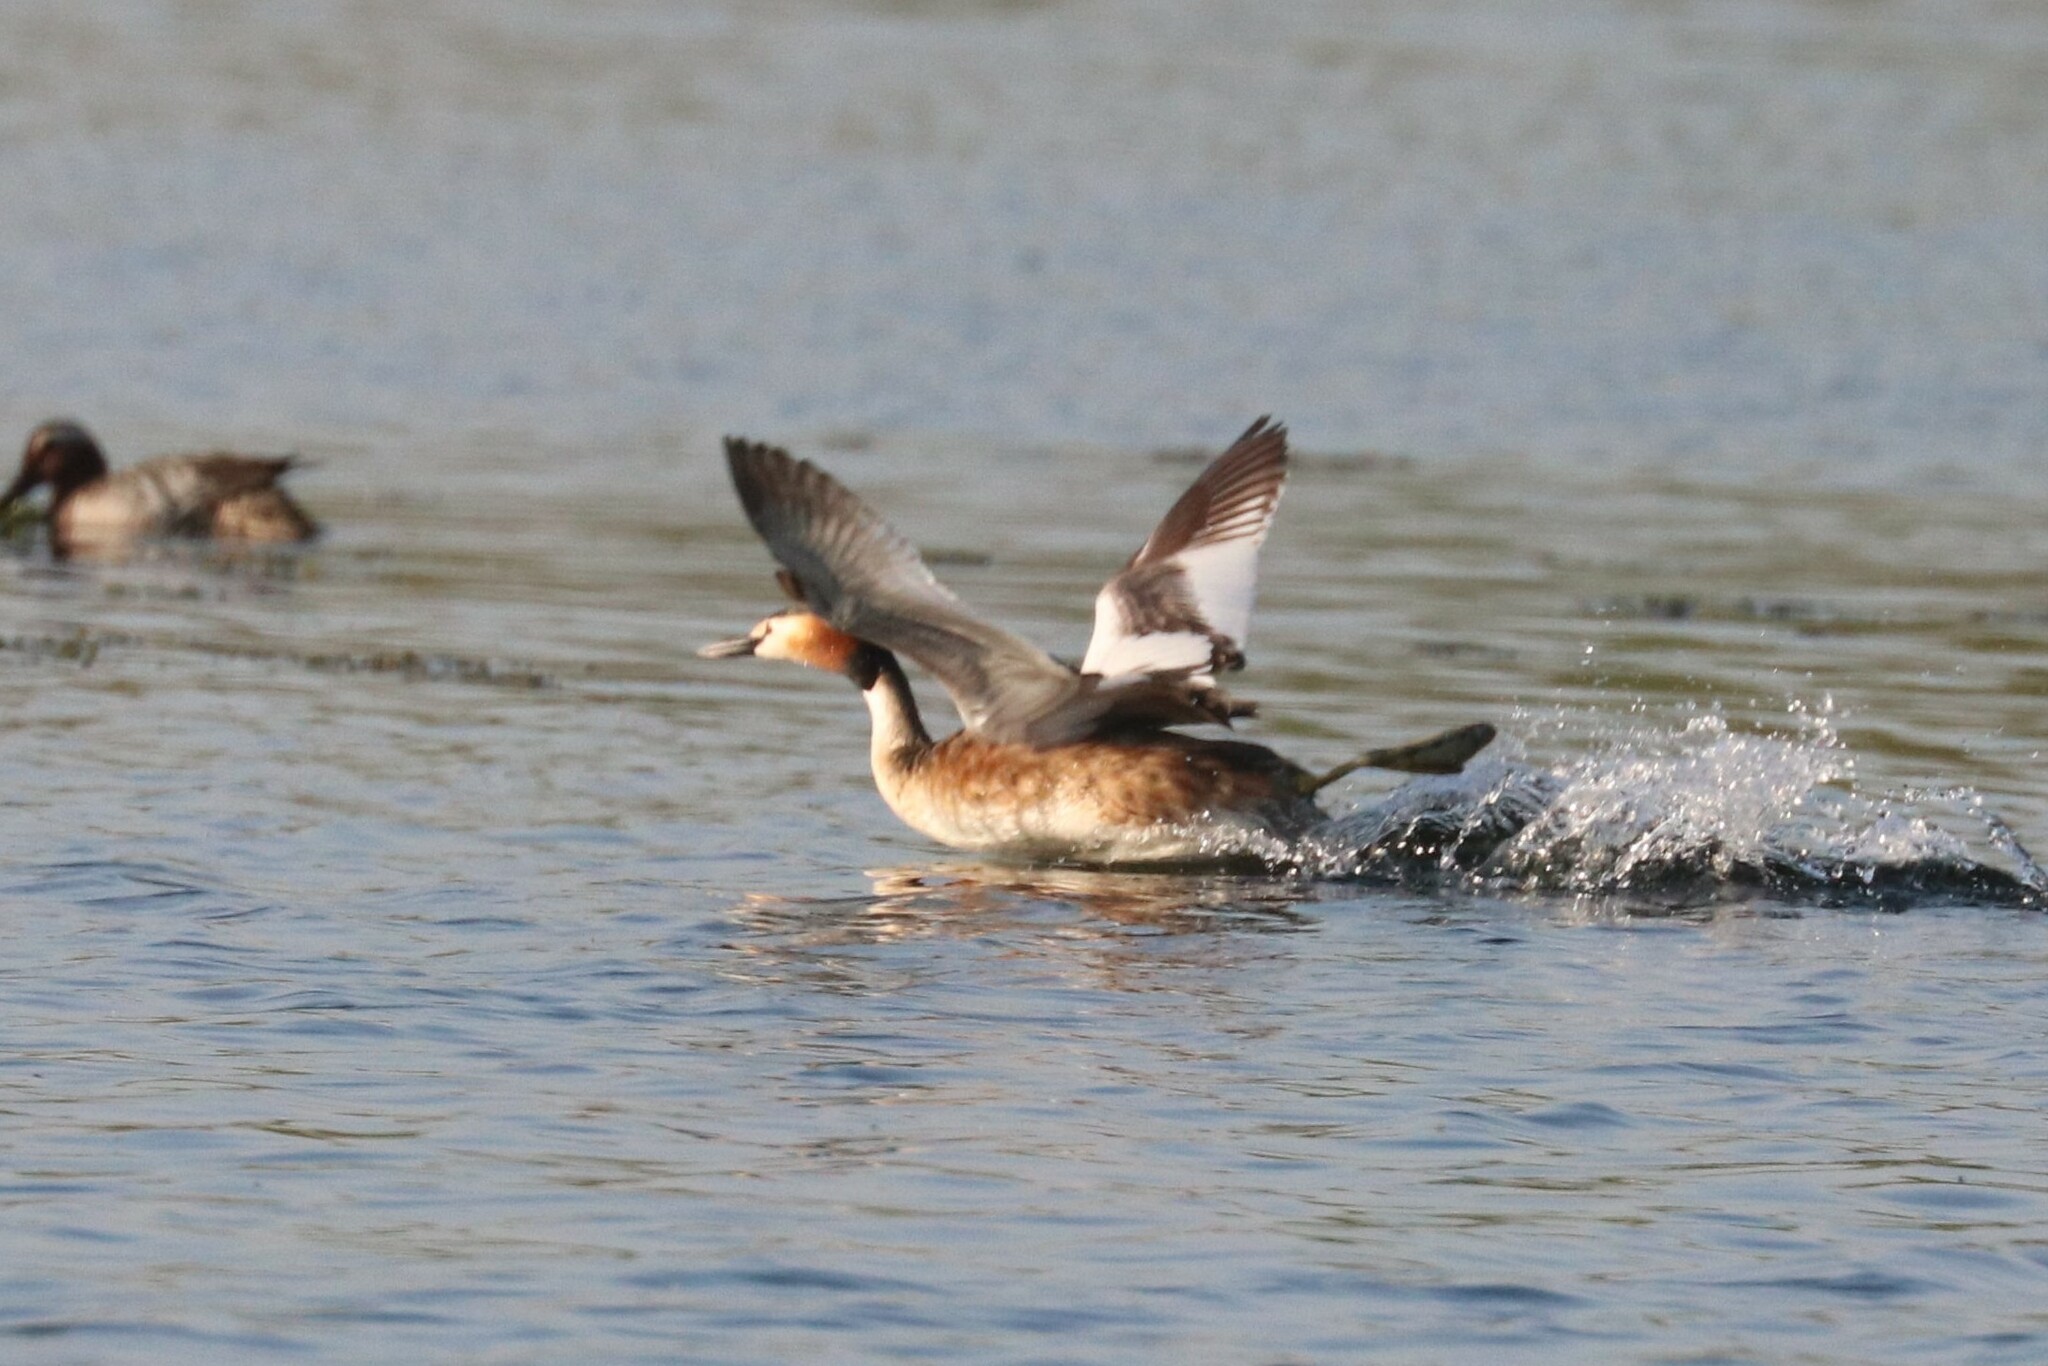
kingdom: Animalia
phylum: Chordata
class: Aves
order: Podicipediformes
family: Podicipedidae
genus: Podiceps
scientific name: Podiceps cristatus
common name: Great crested grebe
